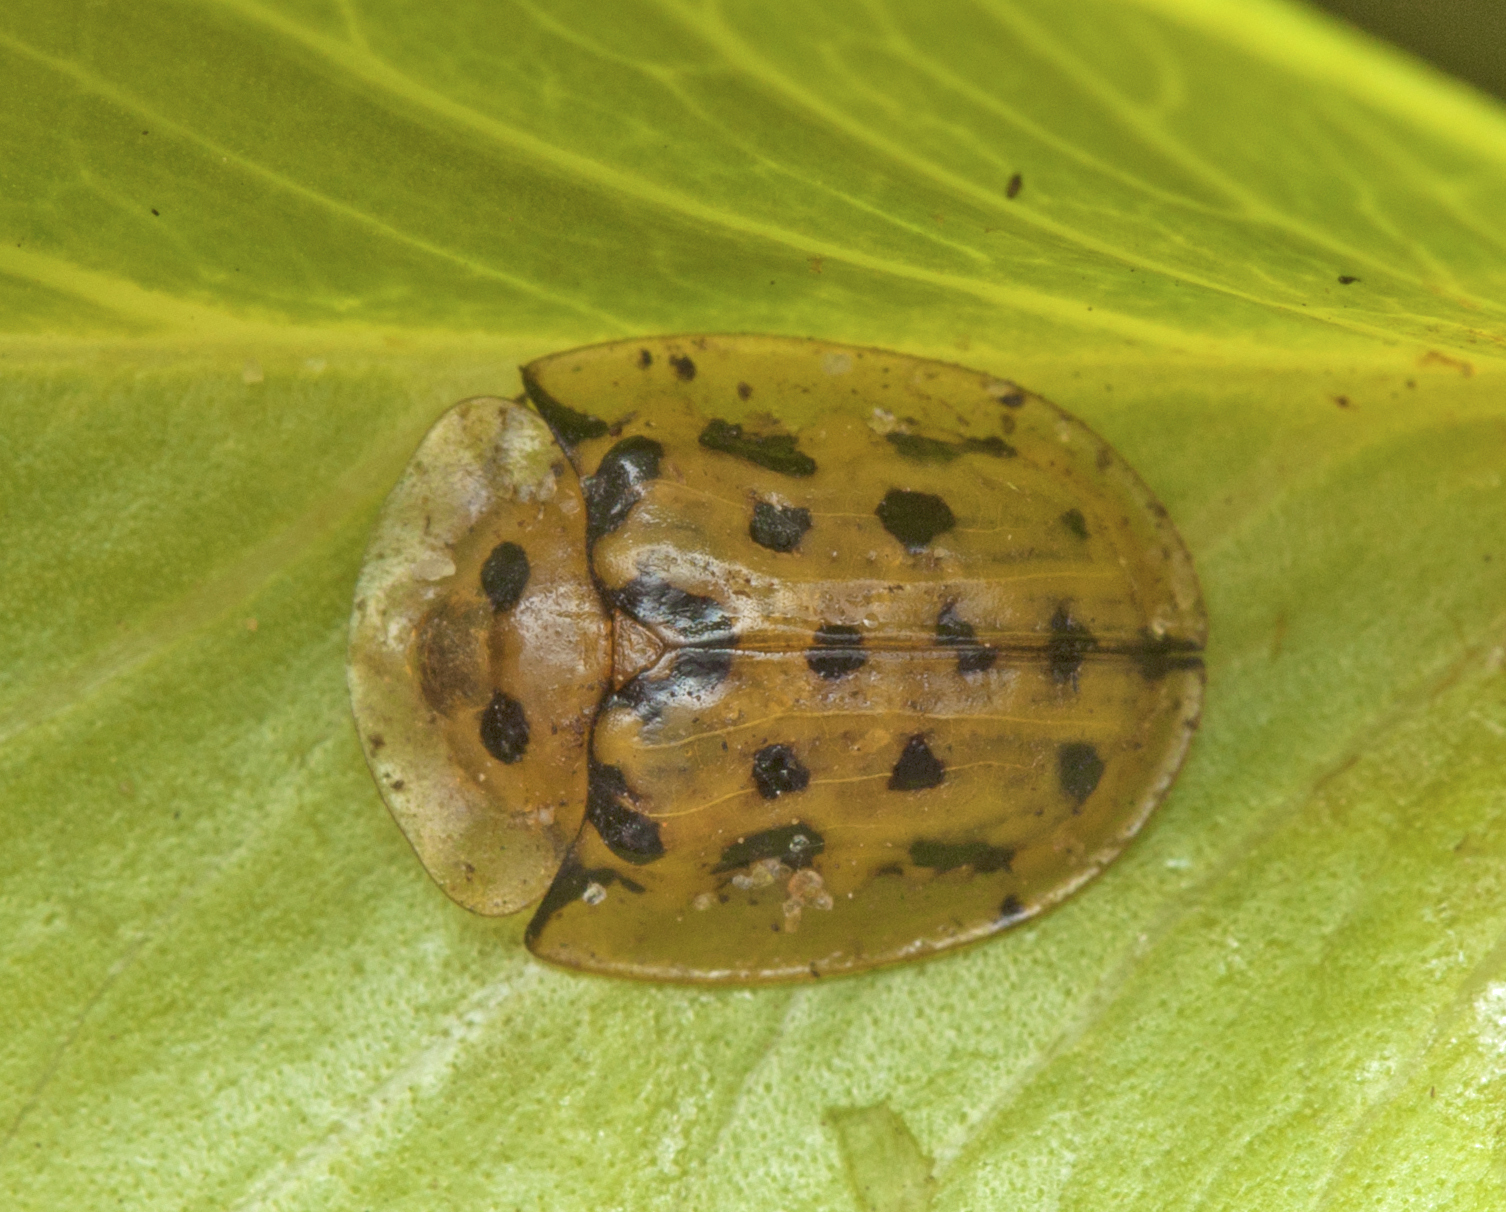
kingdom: Animalia
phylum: Arthropoda
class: Insecta
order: Coleoptera
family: Chrysomelidae
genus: Aspidimorpha
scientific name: Aspidimorpha deusta
